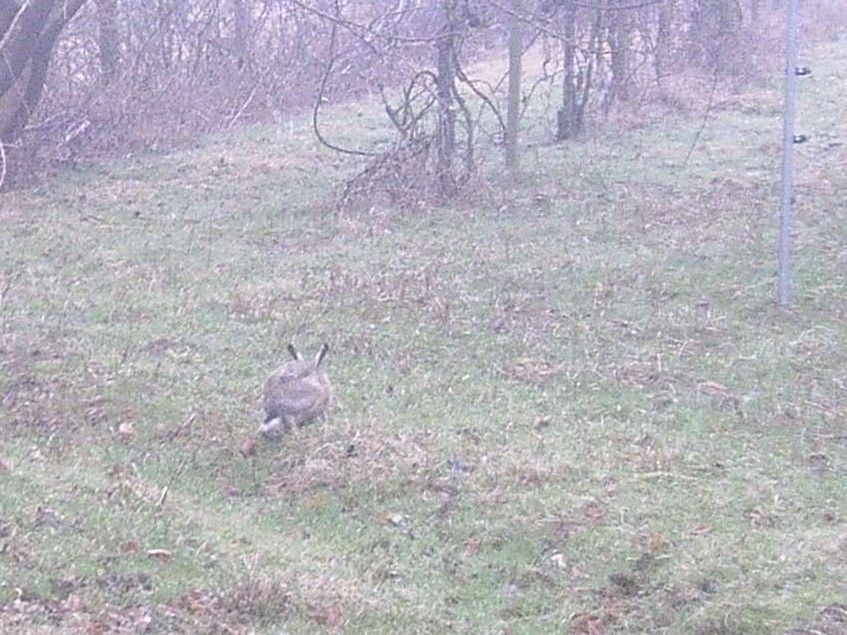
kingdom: Animalia
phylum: Chordata
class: Mammalia
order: Lagomorpha
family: Leporidae
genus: Lepus
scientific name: Lepus europaeus
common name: European hare
